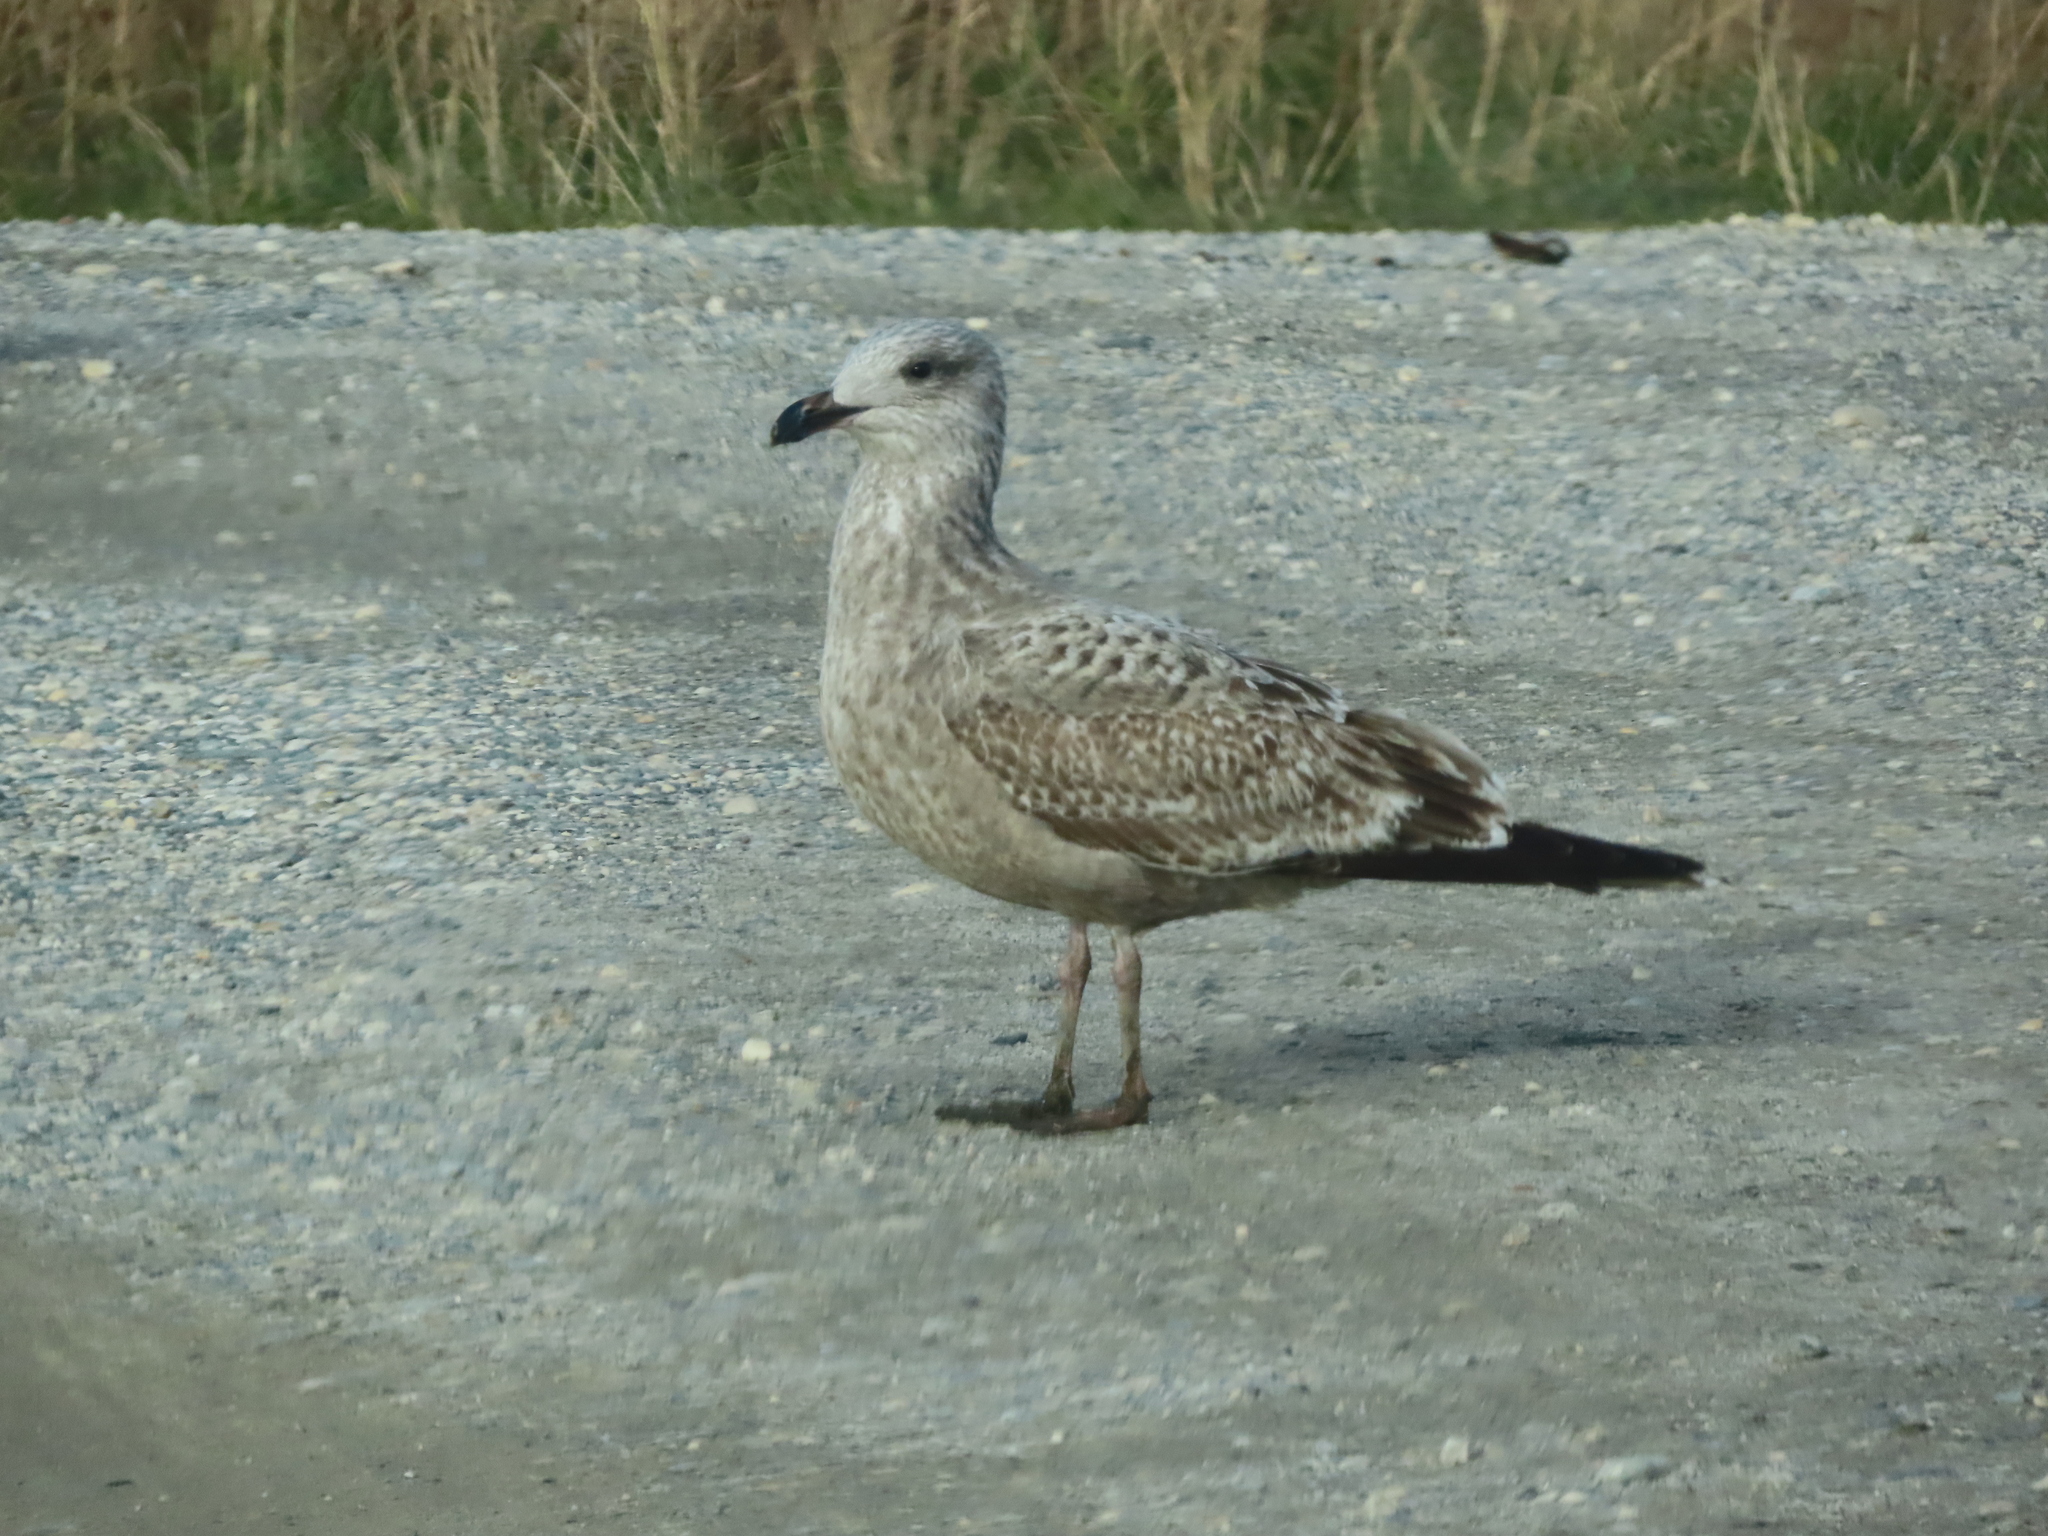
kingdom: Animalia
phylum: Chordata
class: Aves
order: Charadriiformes
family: Laridae
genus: Larus
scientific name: Larus argentatus
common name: Herring gull
